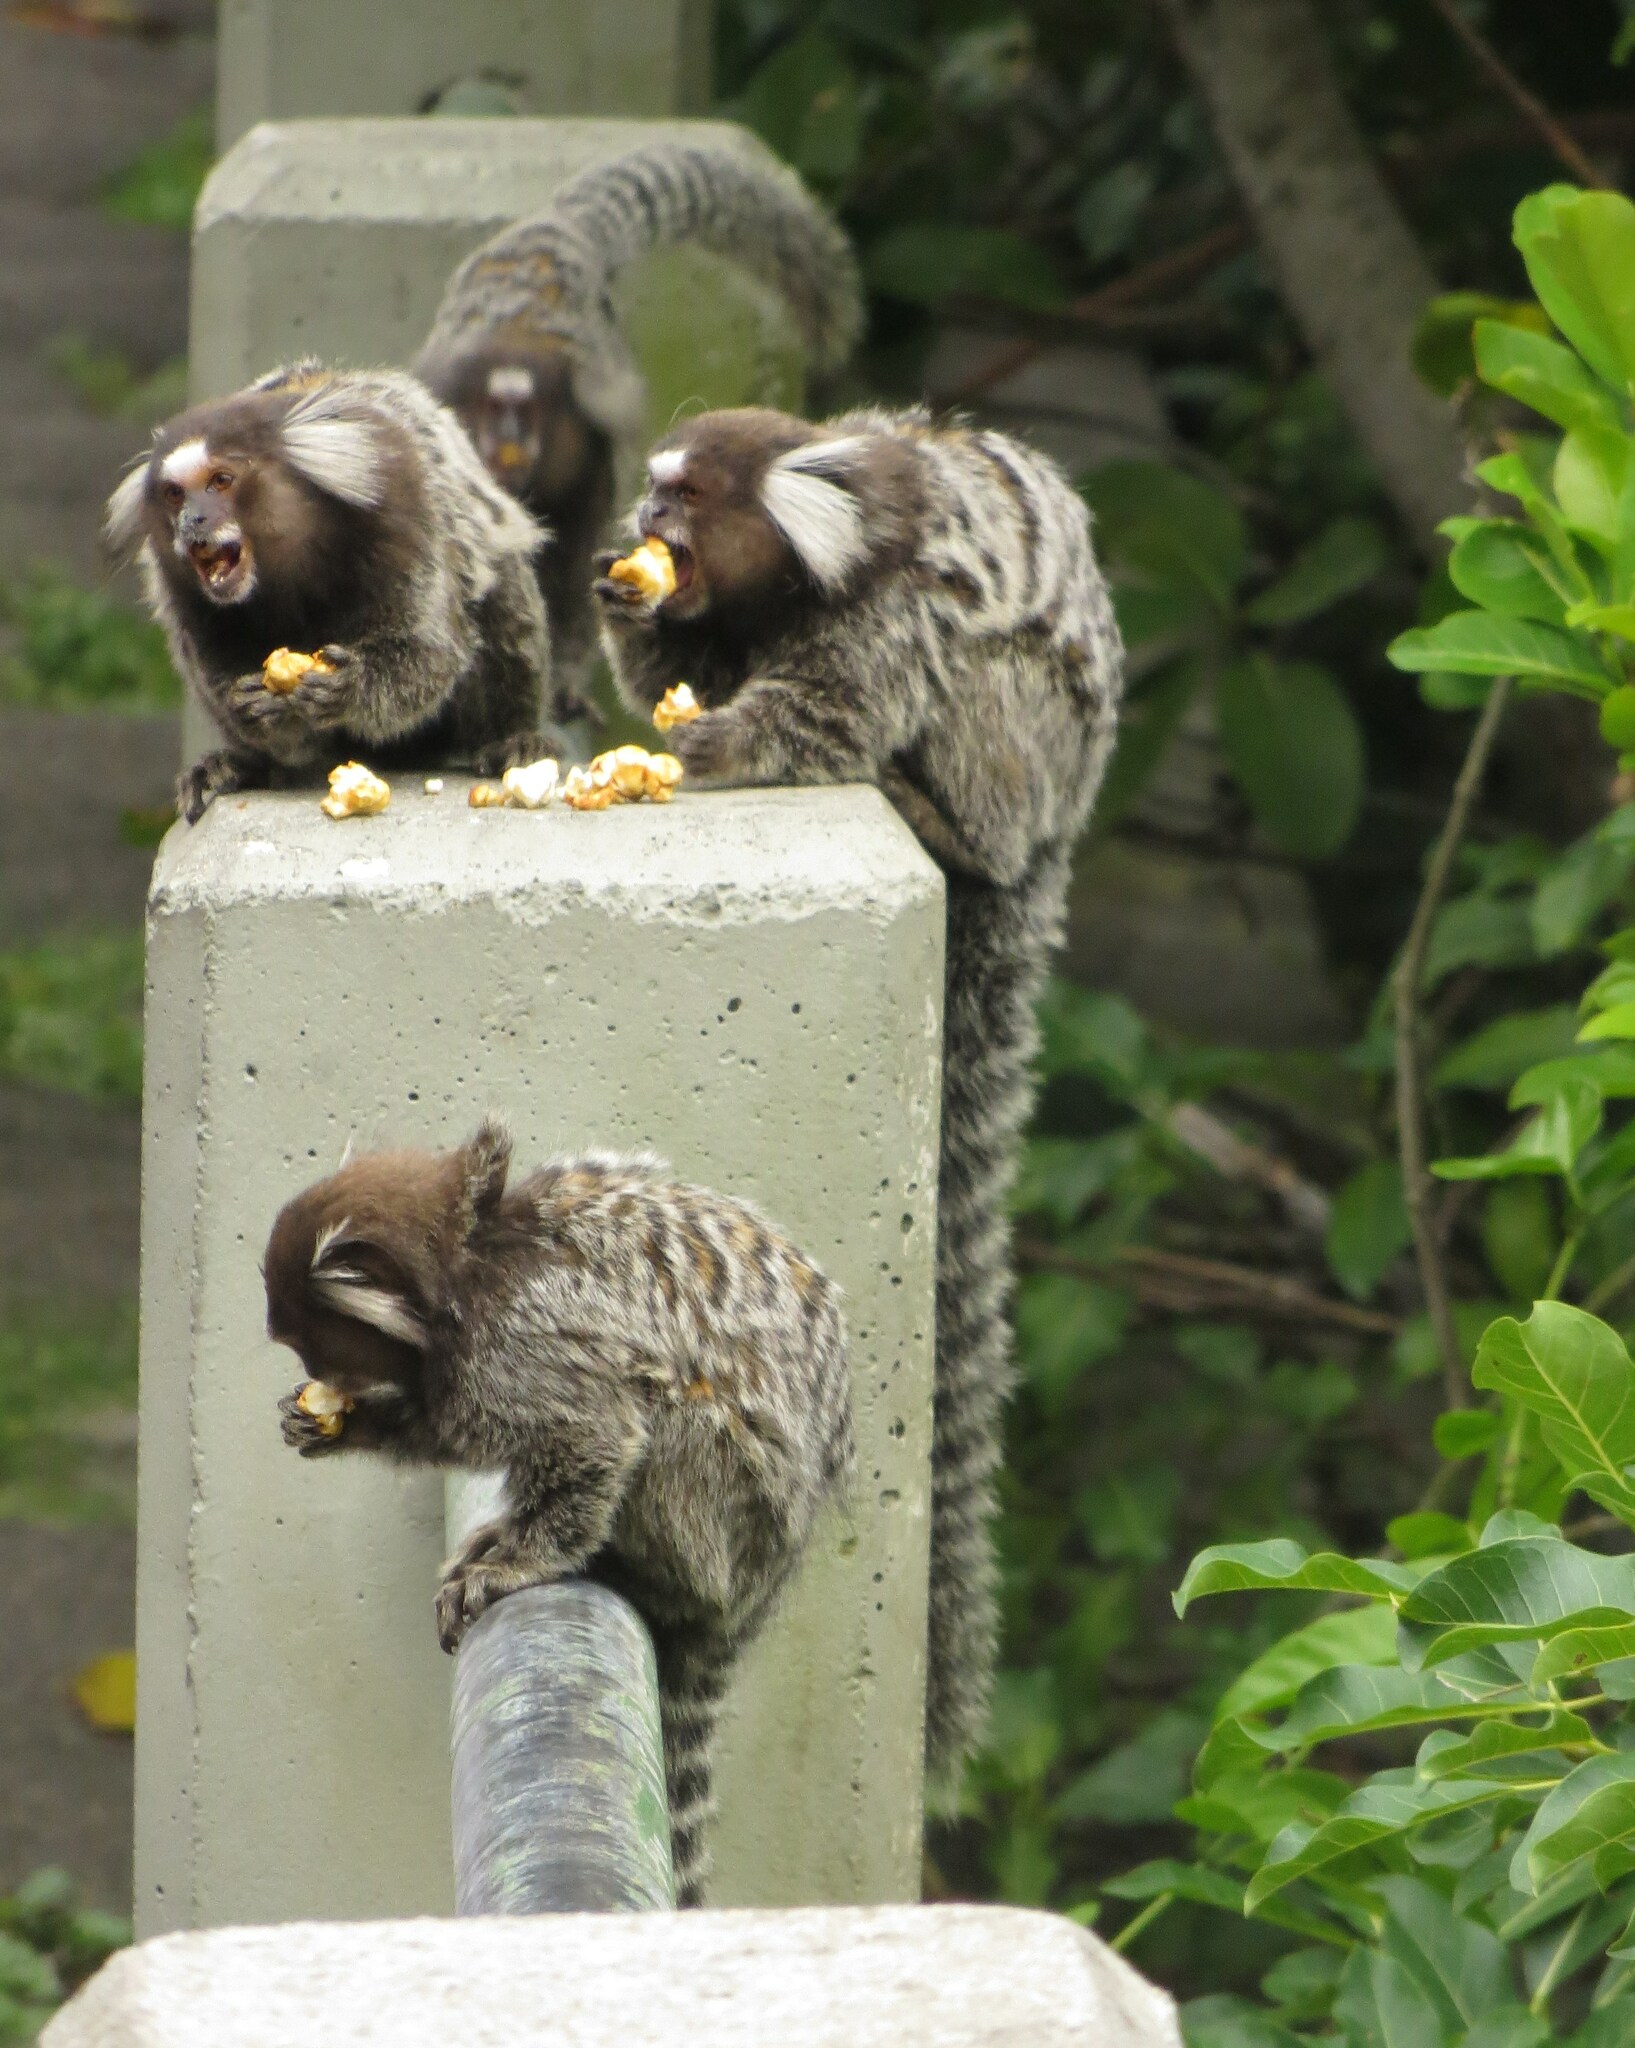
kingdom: Animalia
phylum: Chordata
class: Mammalia
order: Primates
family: Callitrichidae
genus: Callithrix
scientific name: Callithrix jacchus
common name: Common marmoset
